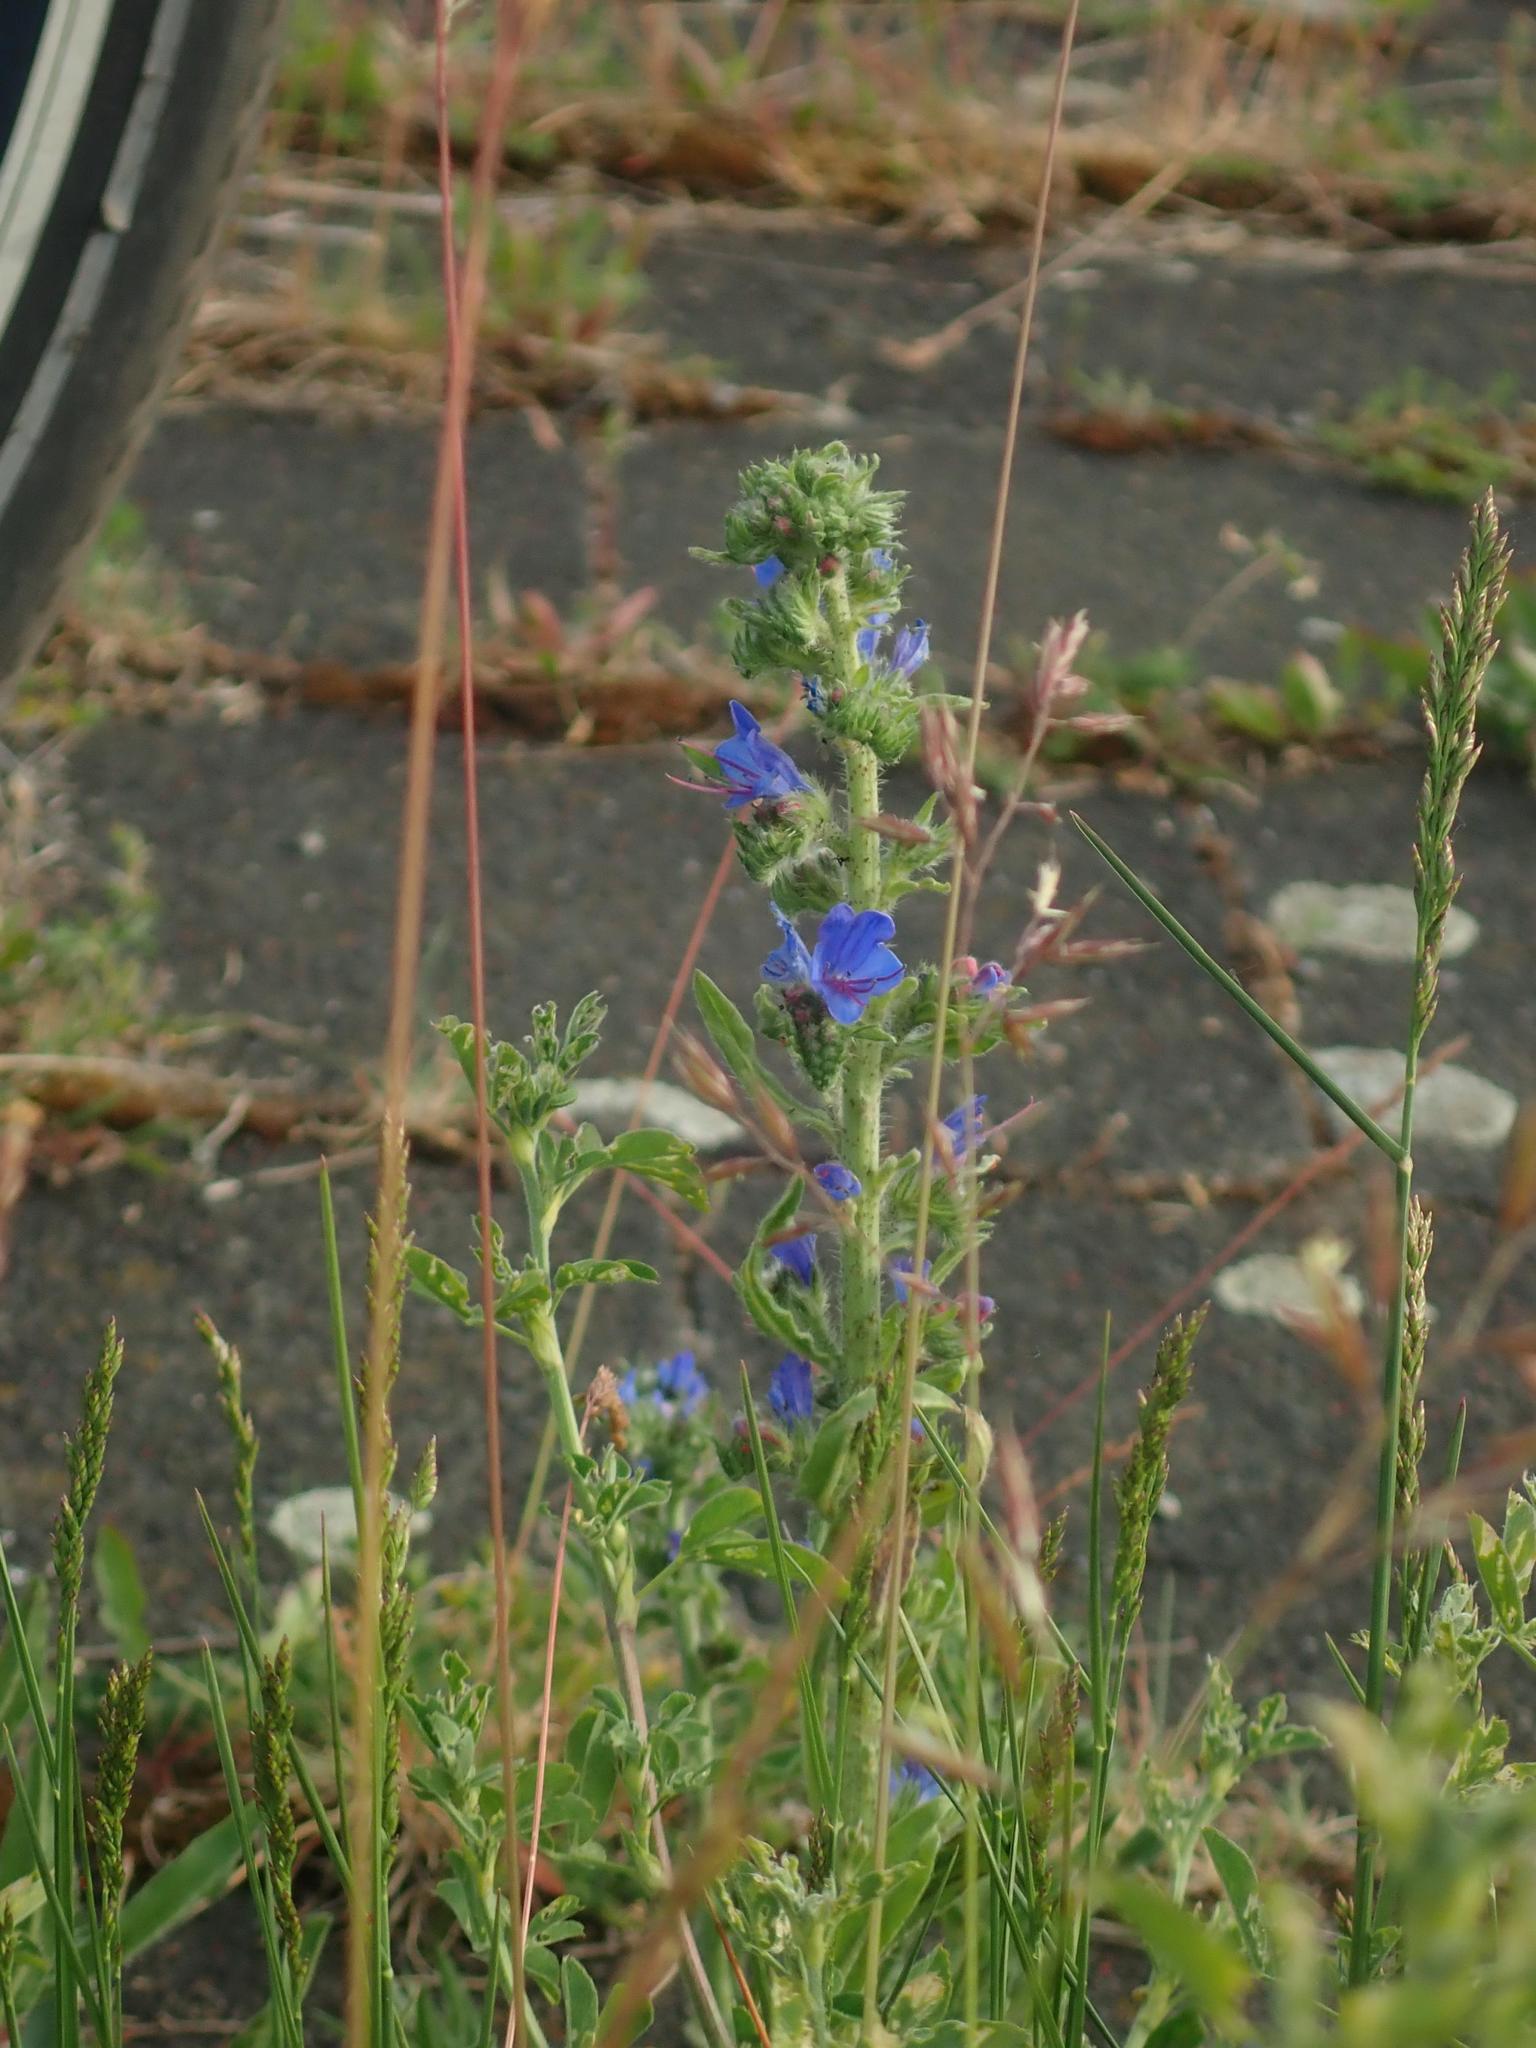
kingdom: Plantae
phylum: Tracheophyta
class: Magnoliopsida
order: Boraginales
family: Boraginaceae
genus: Echium
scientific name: Echium vulgare
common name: Common viper's bugloss
